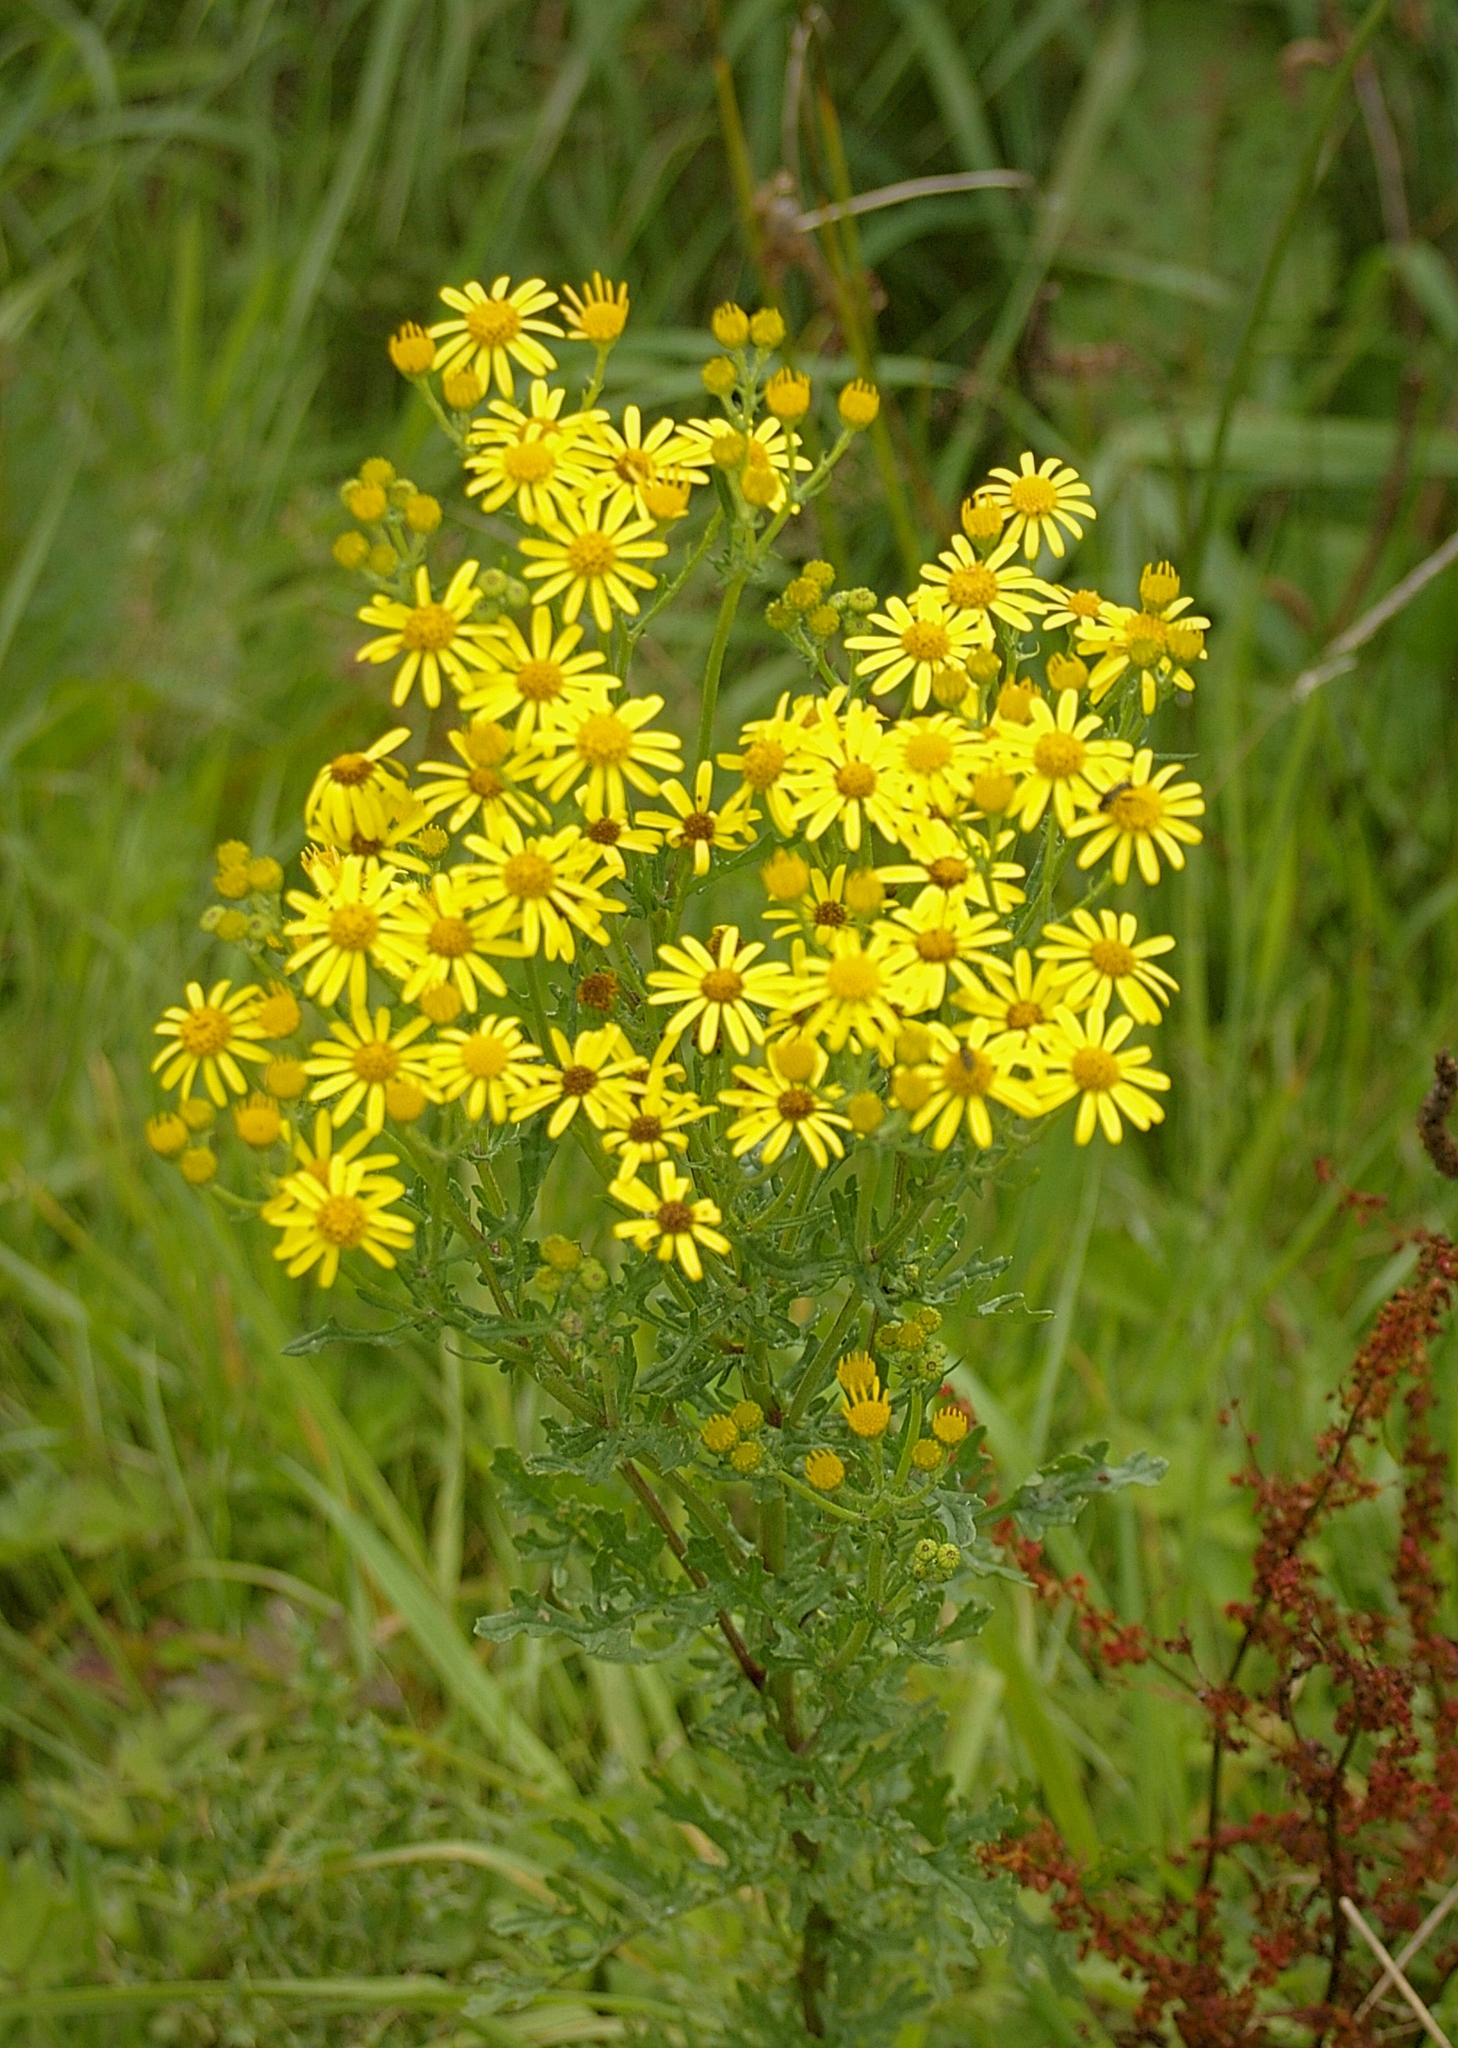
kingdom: Plantae
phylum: Tracheophyta
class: Magnoliopsida
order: Asterales
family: Asteraceae
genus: Jacobaea
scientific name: Jacobaea vulgaris
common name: Stinking willie
